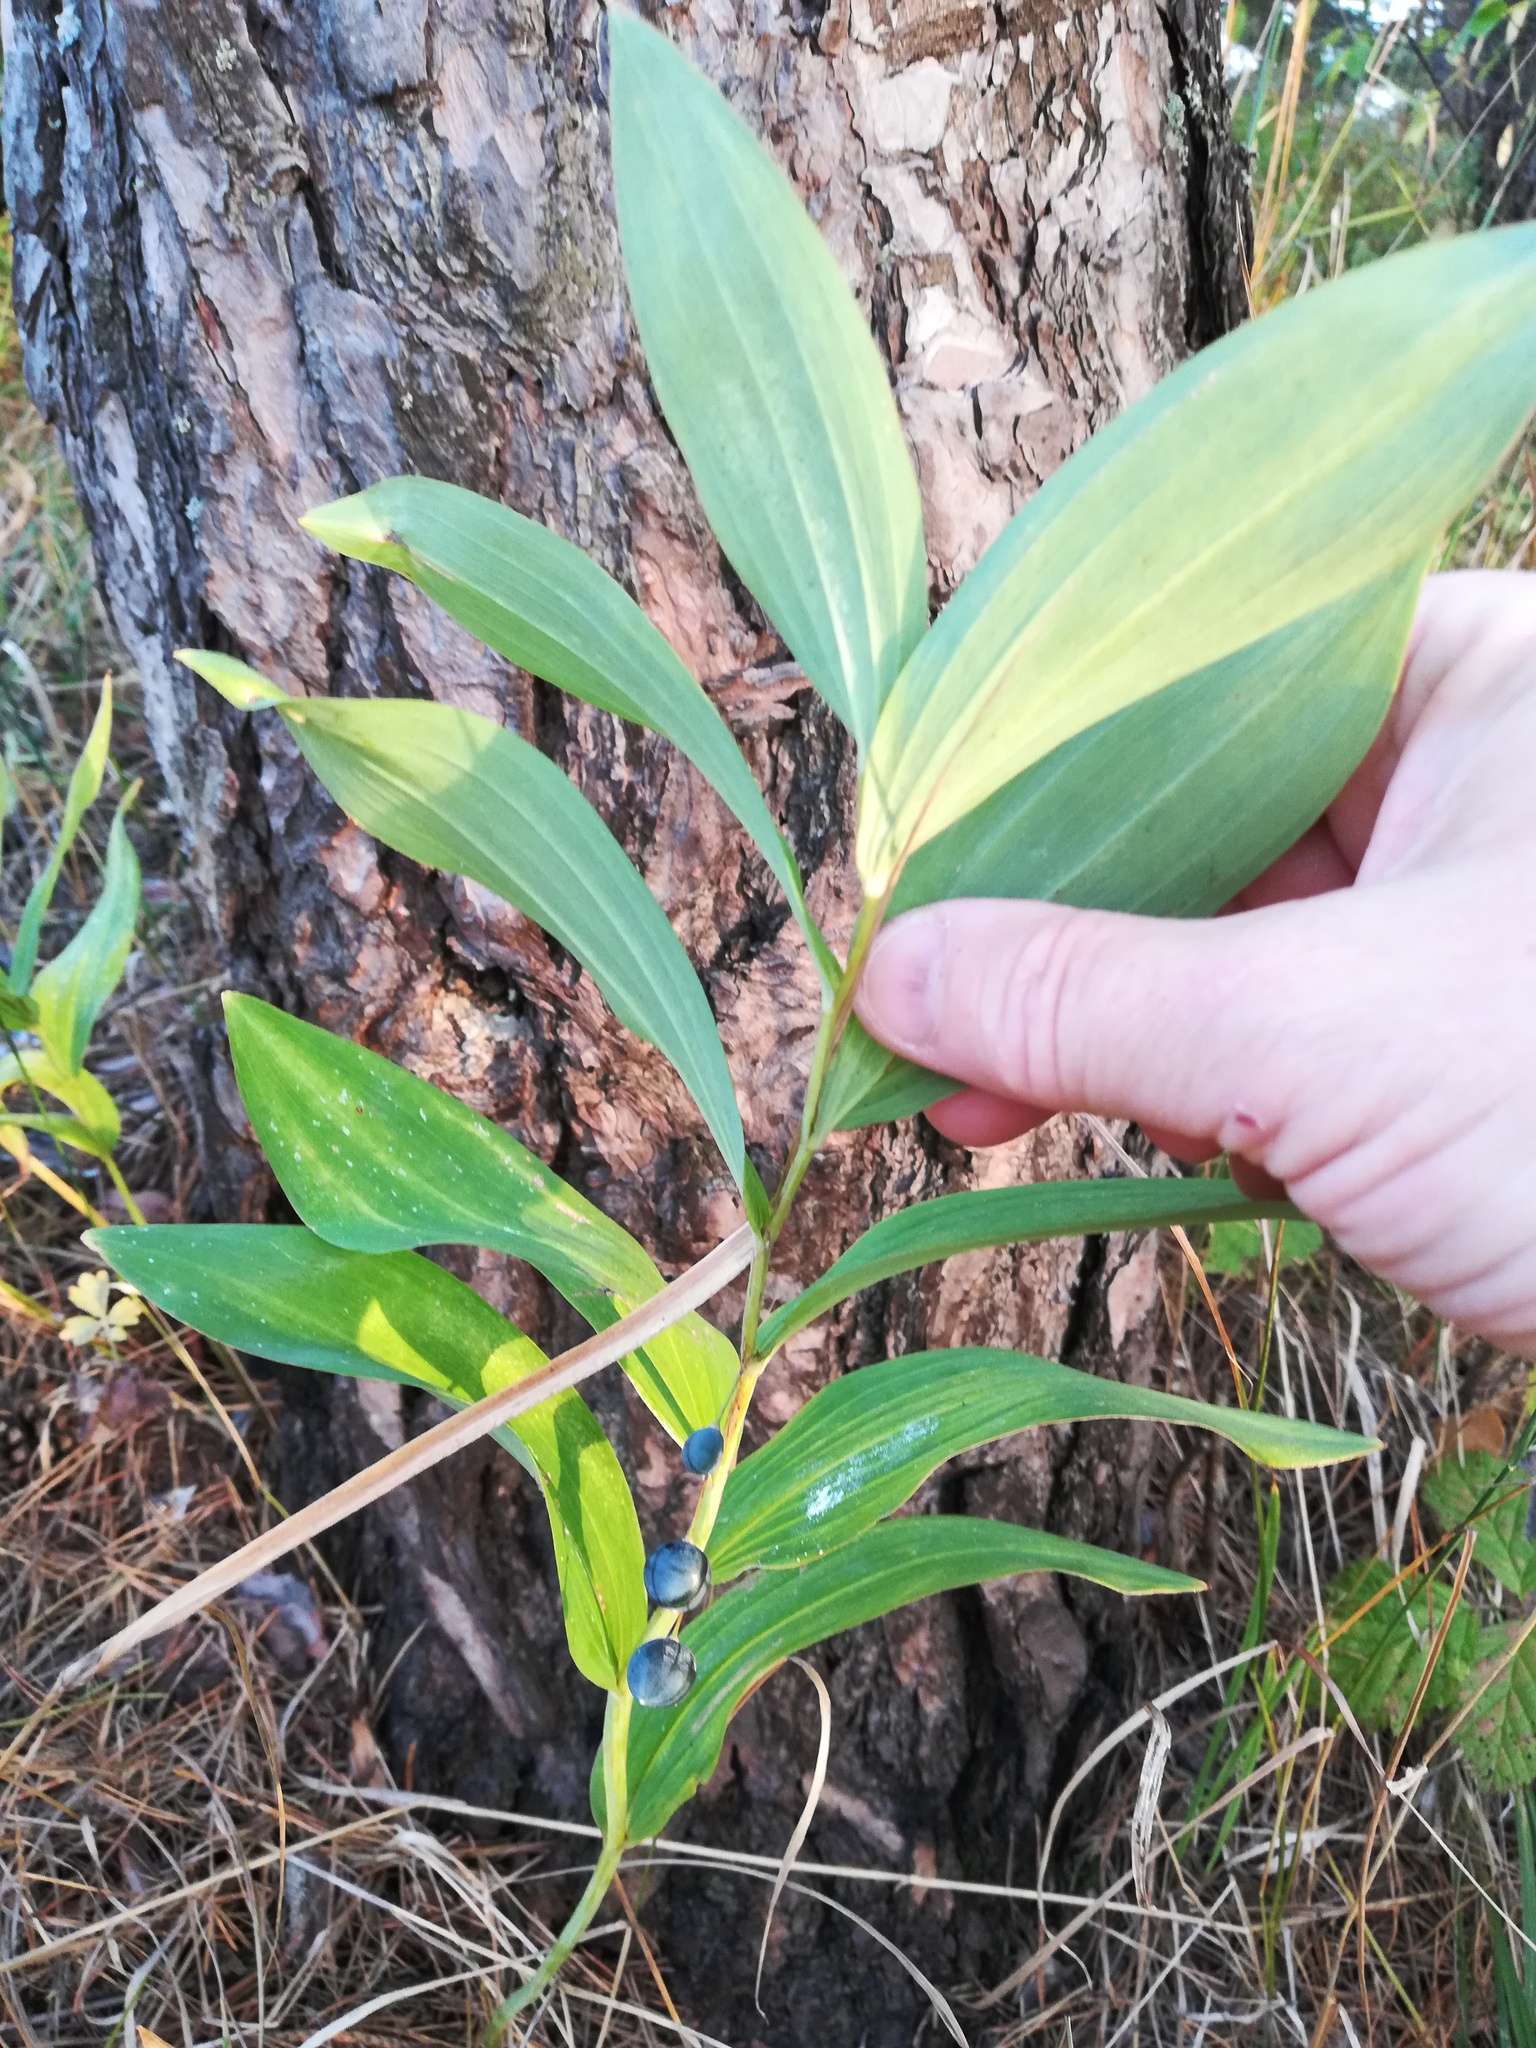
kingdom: Plantae
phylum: Tracheophyta
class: Liliopsida
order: Asparagales
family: Asparagaceae
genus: Polygonatum
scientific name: Polygonatum odoratum
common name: Angular solomon's-seal
